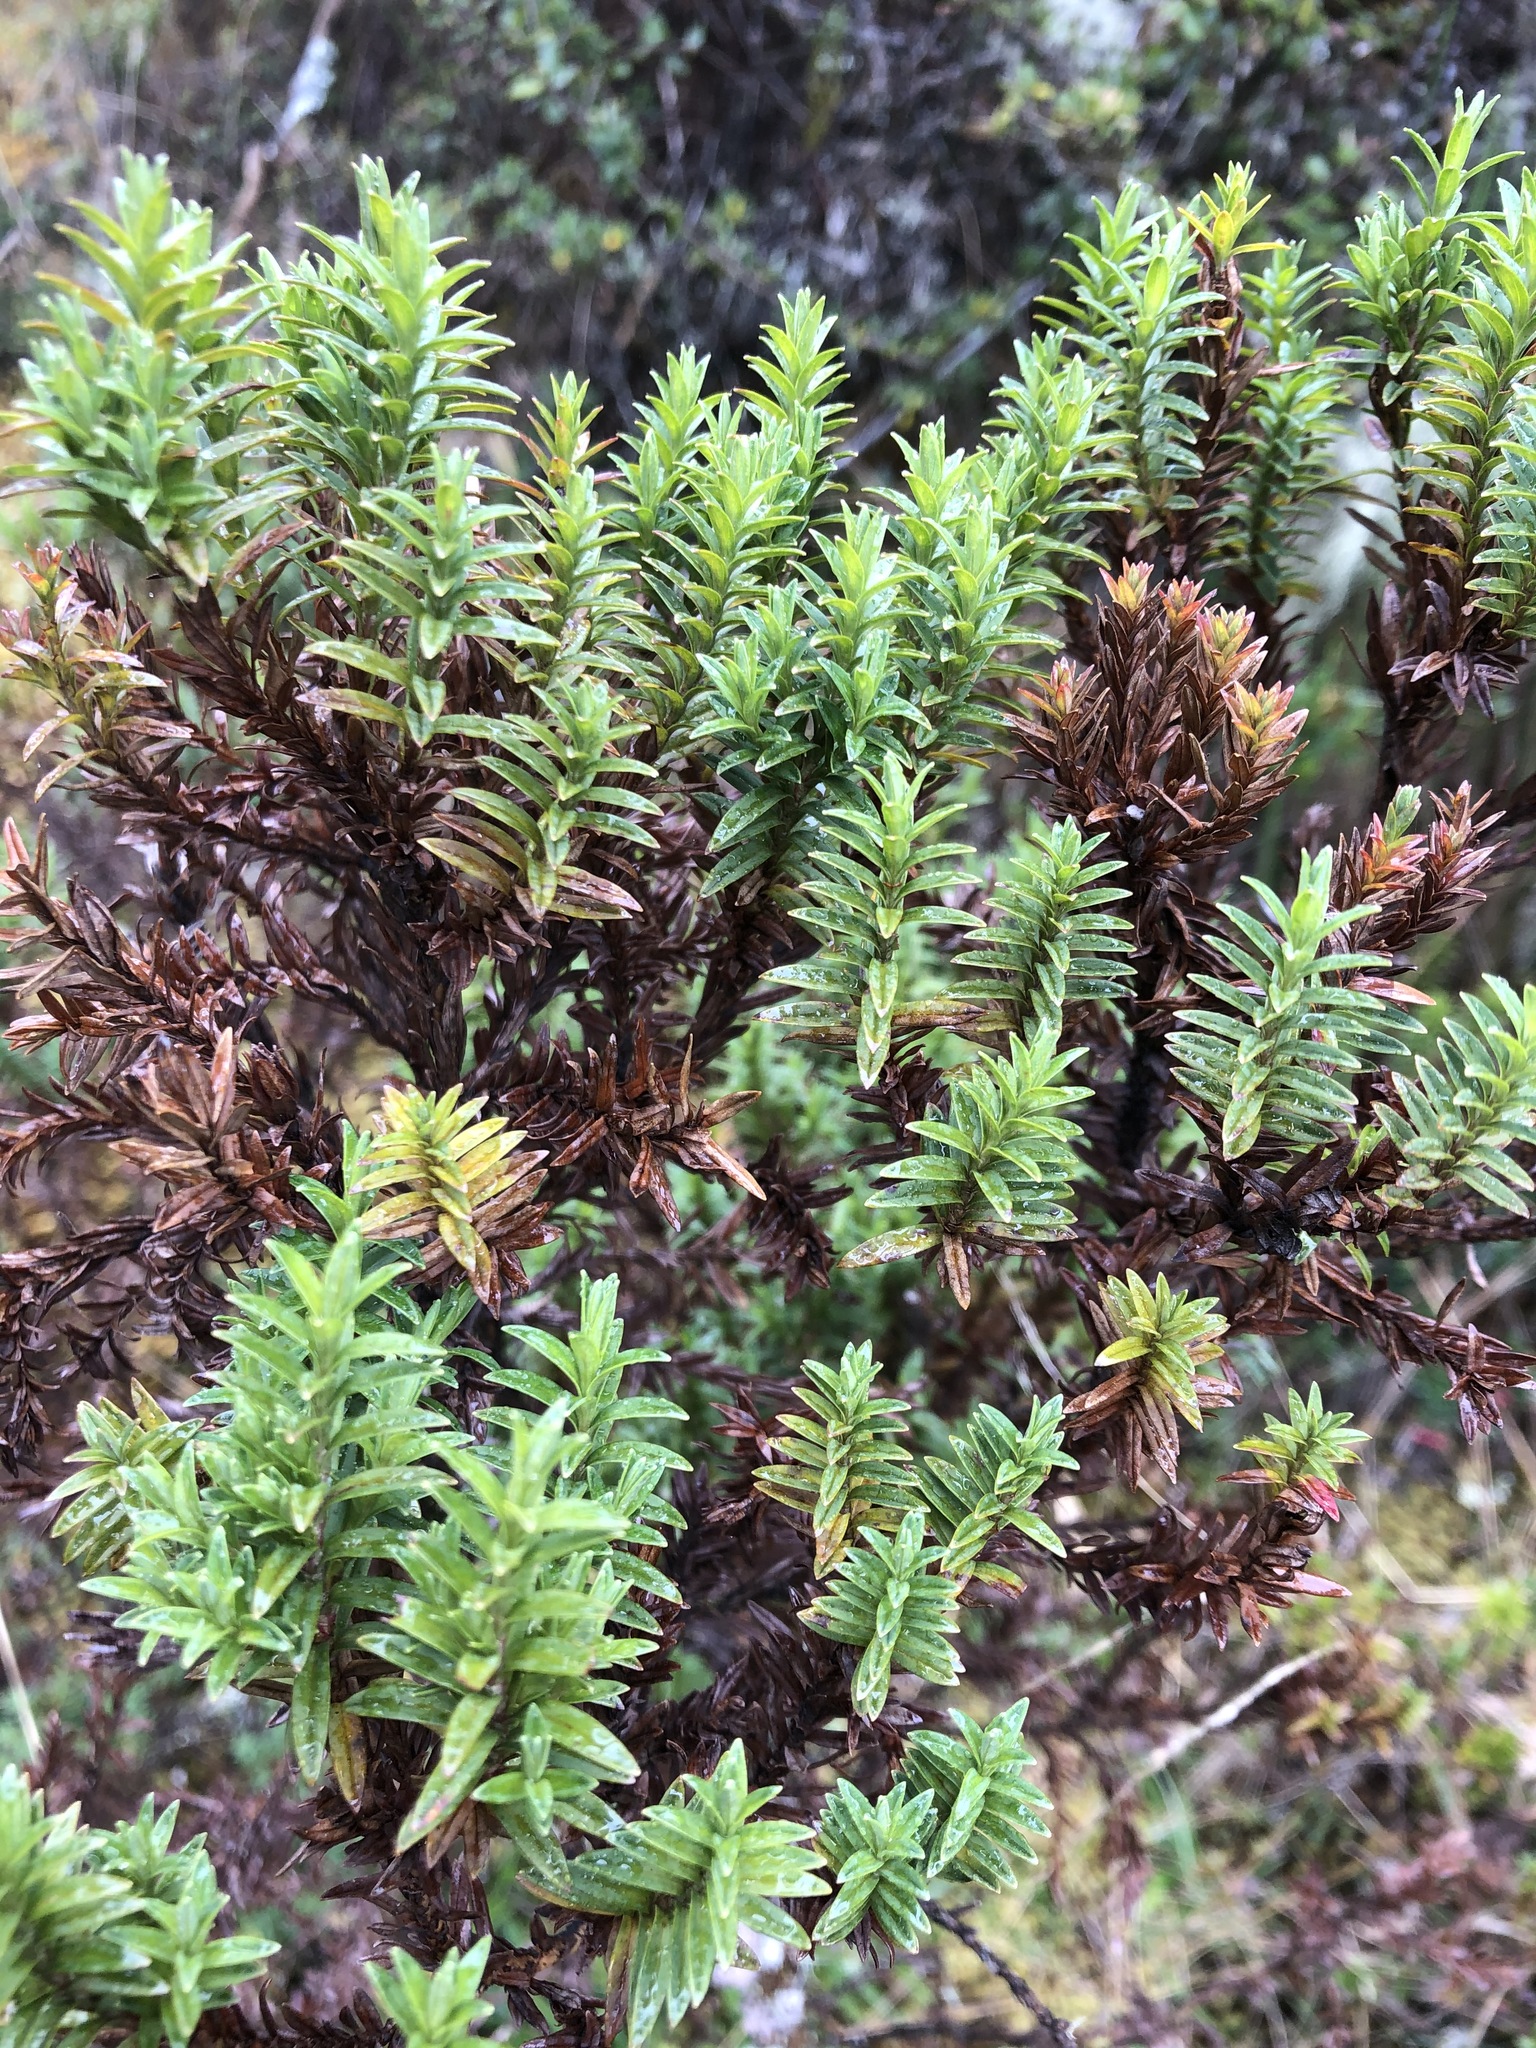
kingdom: Plantae
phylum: Tracheophyta
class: Magnoliopsida
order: Malpighiales
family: Hypericaceae
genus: Hypericum
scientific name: Hypericum irazuense
